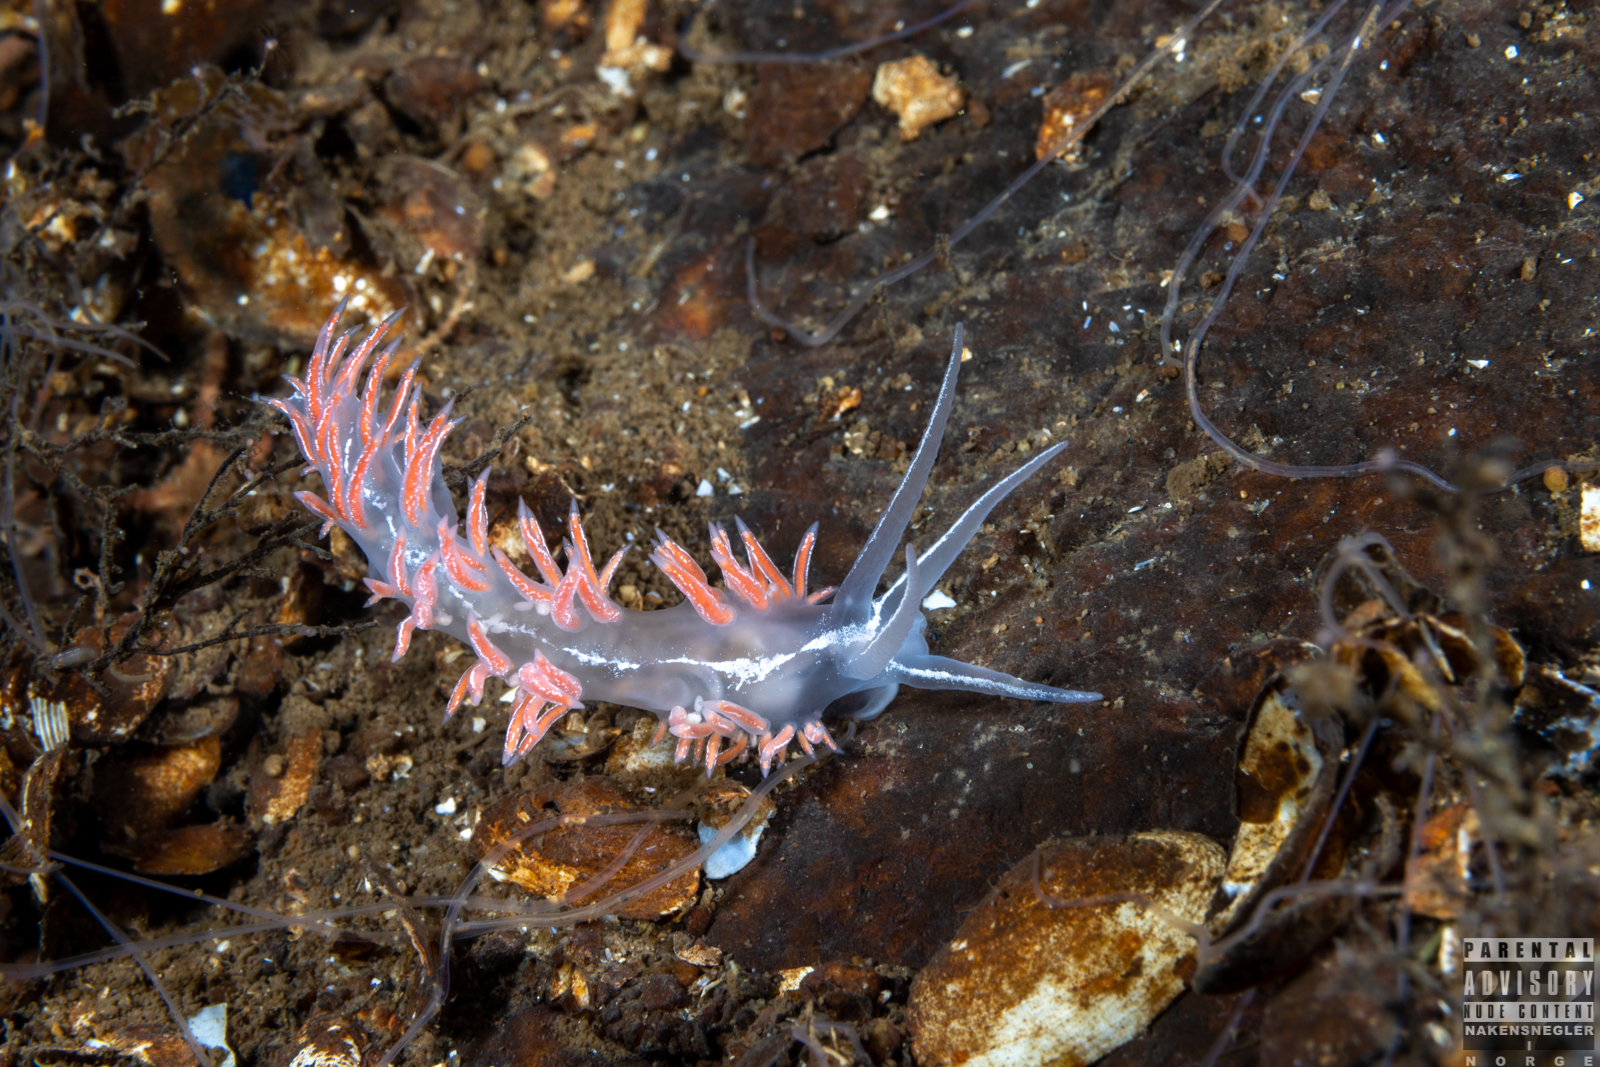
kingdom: Animalia
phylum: Mollusca
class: Gastropoda
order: Nudibranchia
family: Coryphellidae
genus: Coryphella
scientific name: Coryphella chriskaugei
